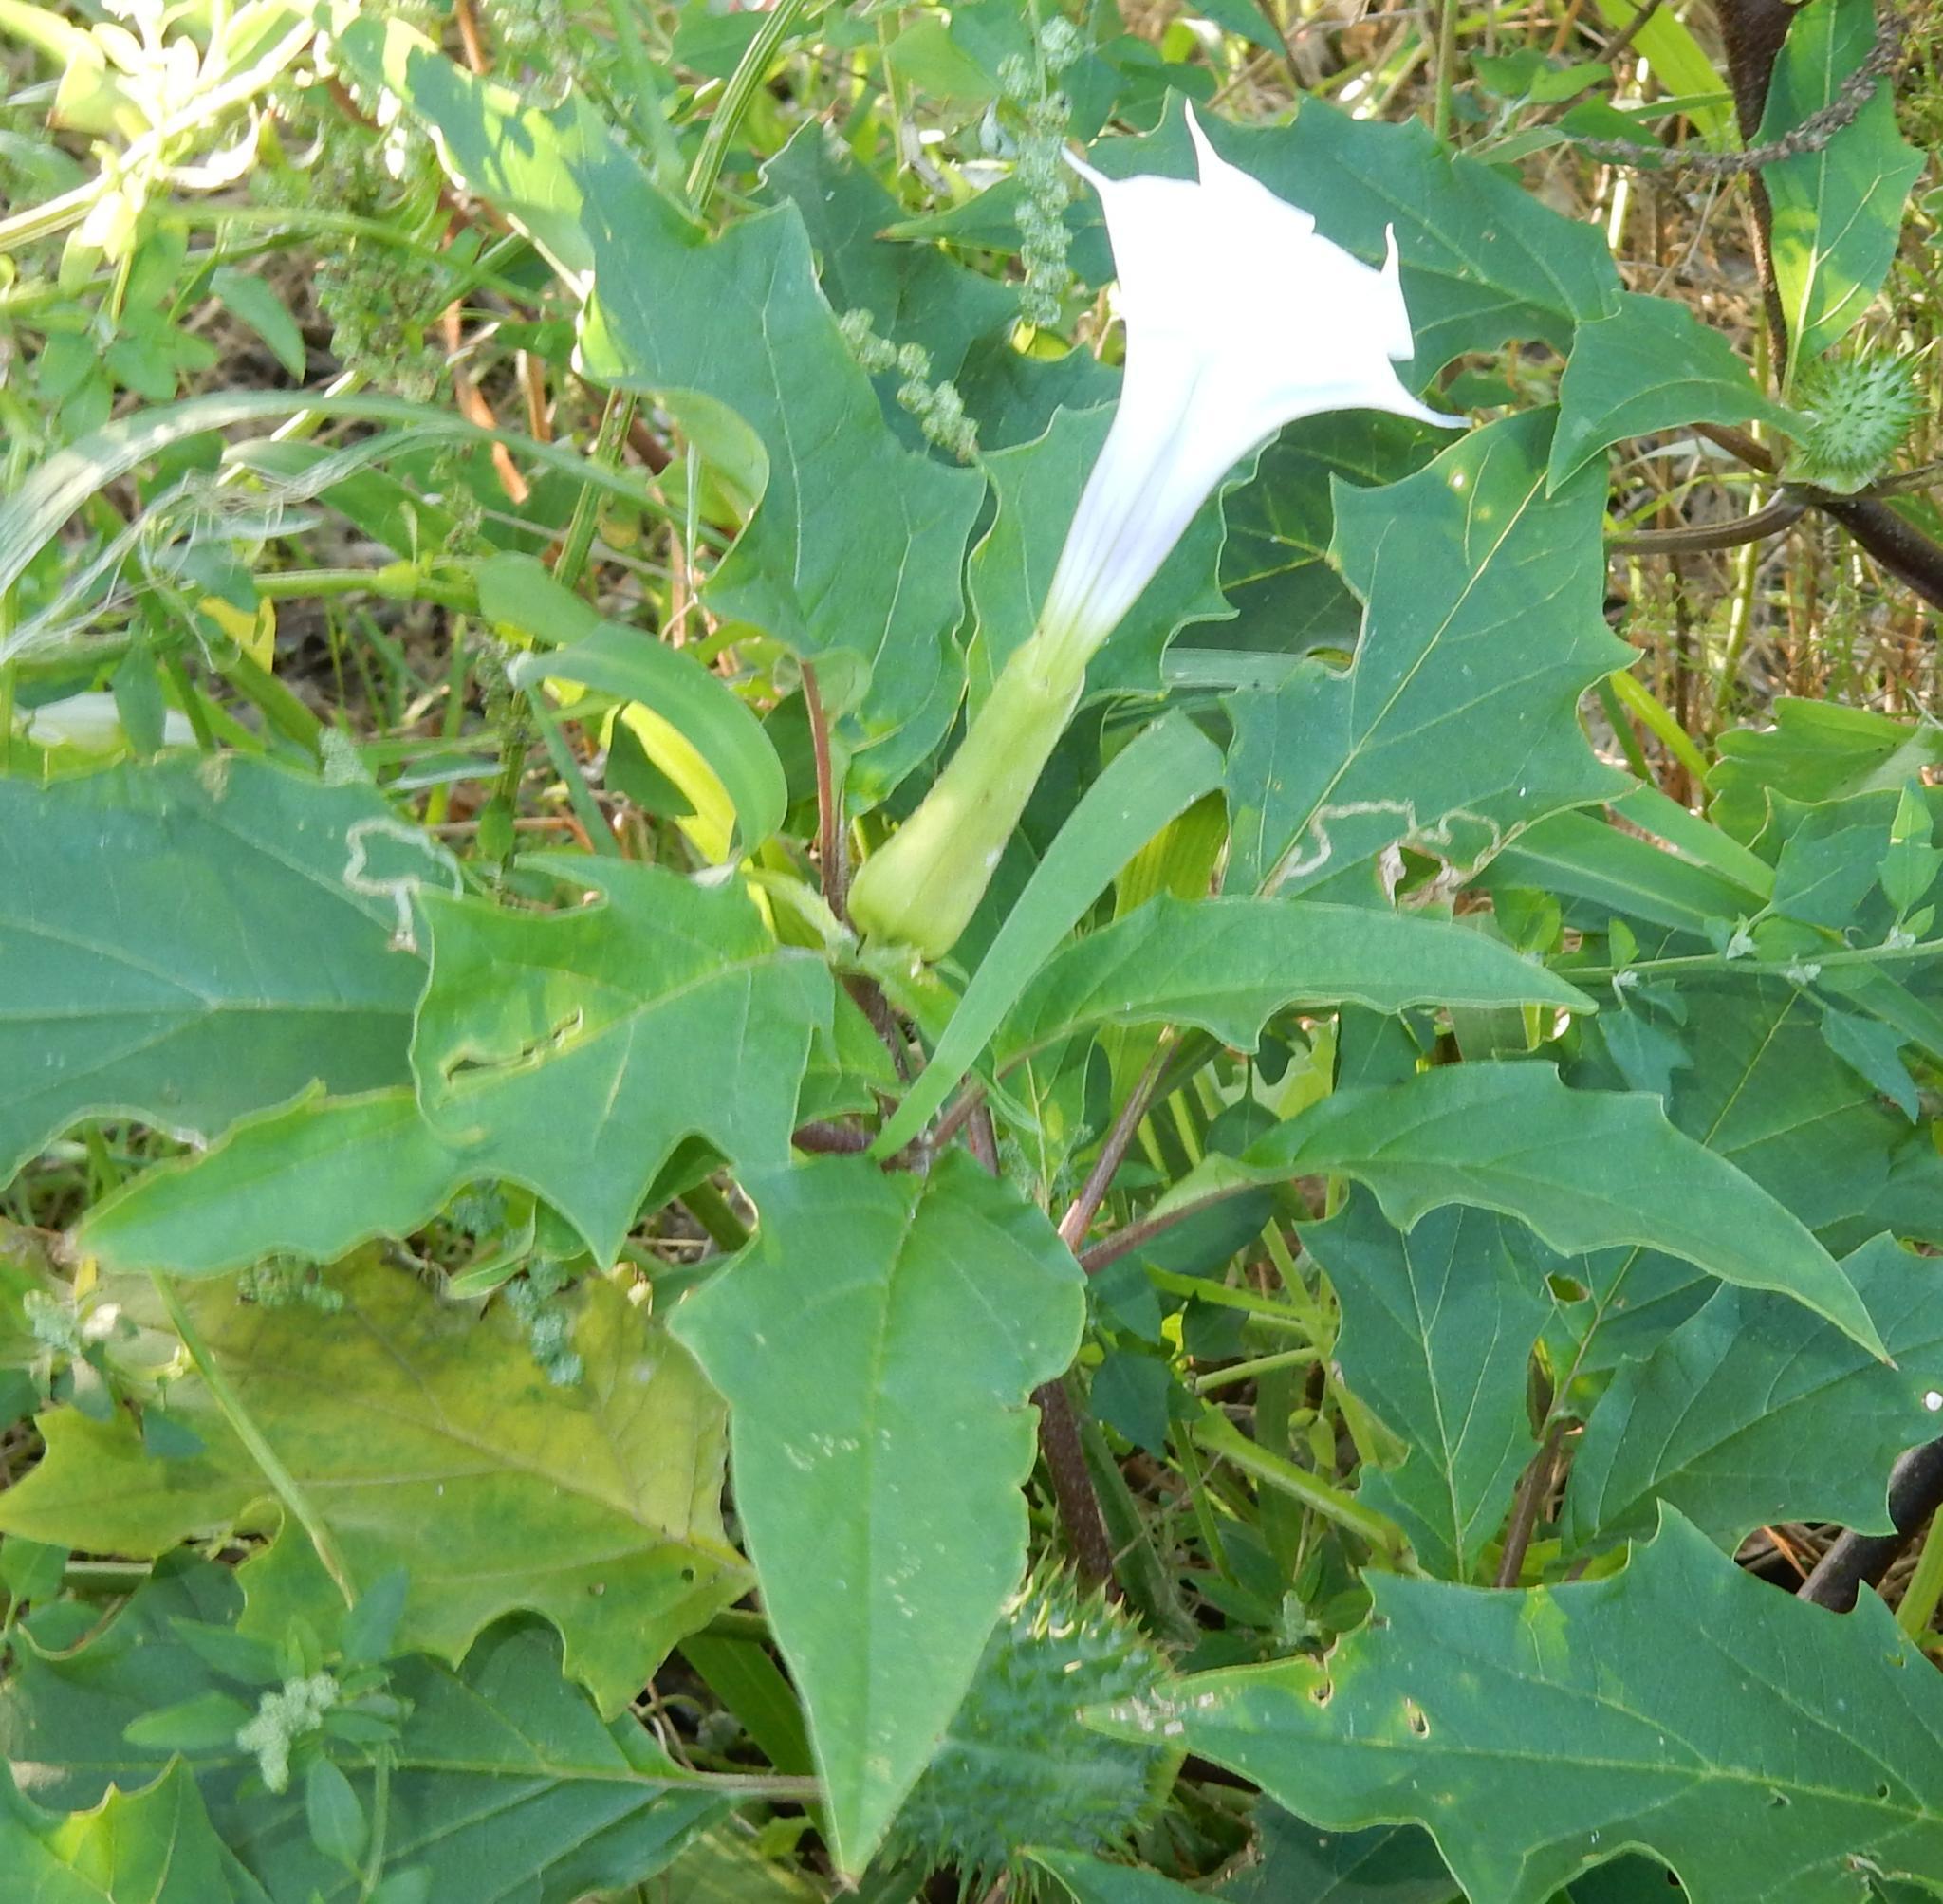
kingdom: Plantae
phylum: Tracheophyta
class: Magnoliopsida
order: Solanales
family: Solanaceae
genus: Datura
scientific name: Datura stramonium
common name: Thorn-apple
